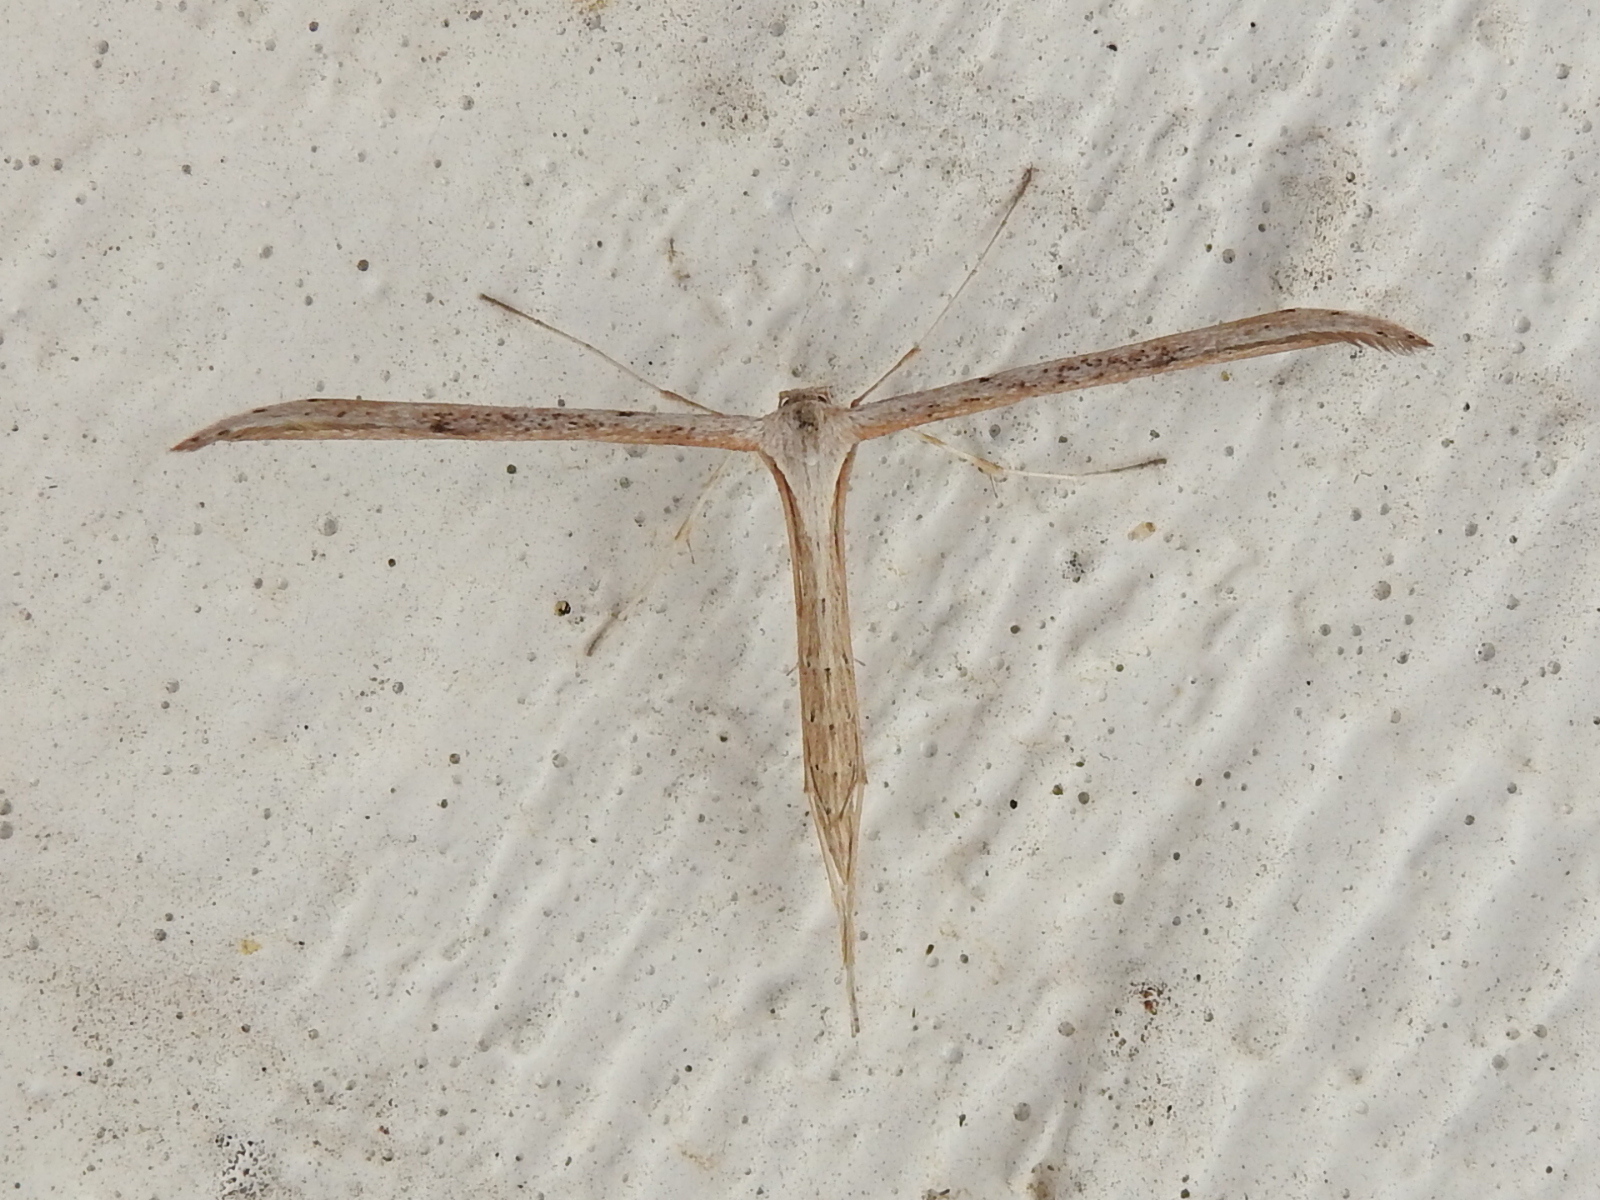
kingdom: Animalia
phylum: Arthropoda
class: Insecta
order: Lepidoptera
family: Pterophoridae
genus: Emmelina
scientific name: Emmelina monodactyla
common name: Common plume
